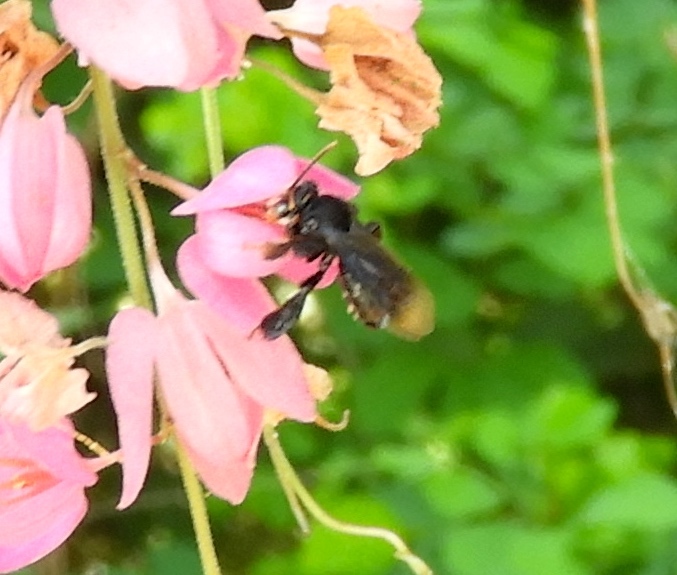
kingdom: Animalia
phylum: Arthropoda
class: Insecta
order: Hymenoptera
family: Apidae
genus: Paratetrapedia
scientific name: Paratetrapedia moesta
